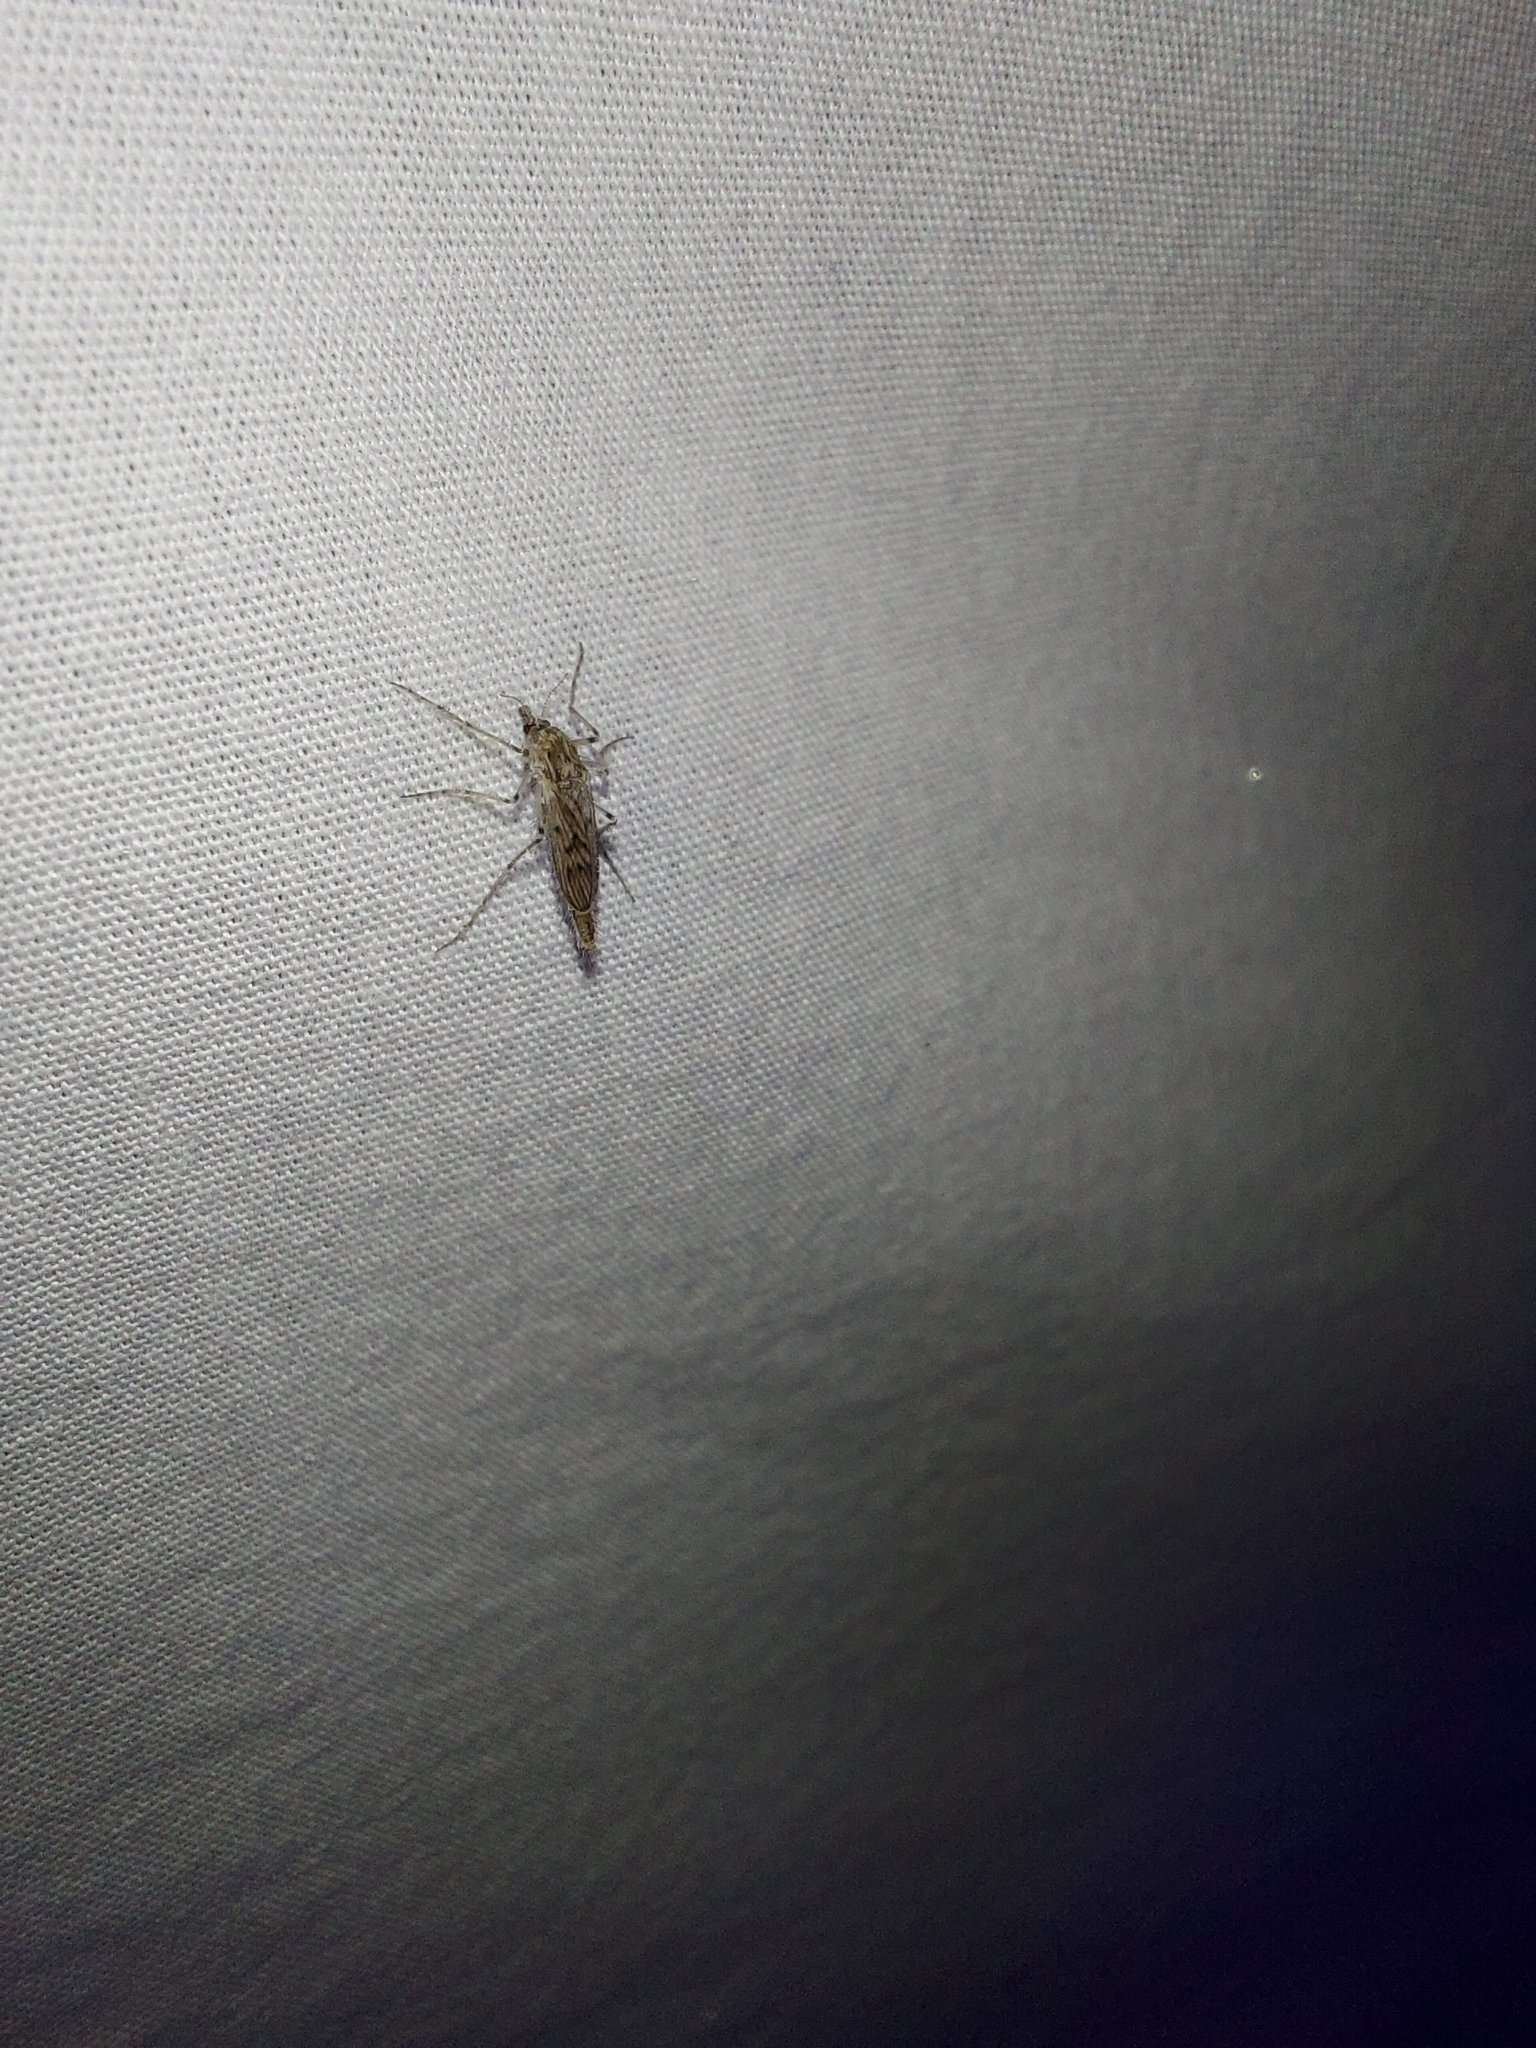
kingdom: Animalia
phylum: Arthropoda
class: Insecta
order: Diptera
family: Chaoboridae
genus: Chaoborus
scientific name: Chaoborus vagus
